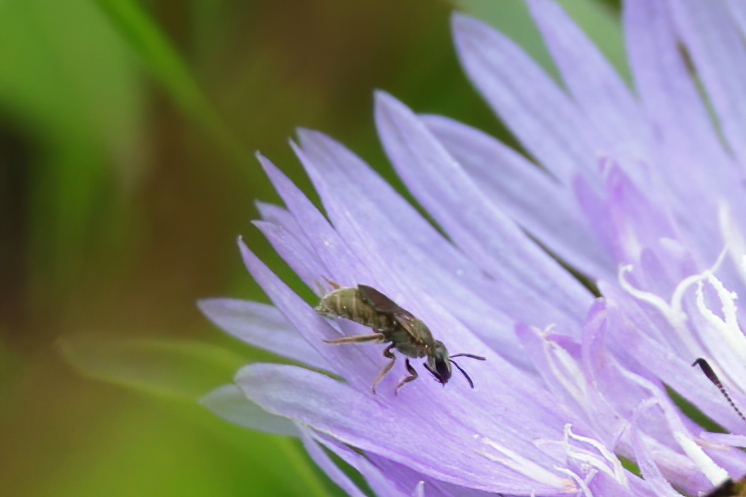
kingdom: Animalia
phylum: Arthropoda
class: Insecta
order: Hymenoptera
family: Halictidae
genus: Lasioglossum
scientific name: Lasioglossum
